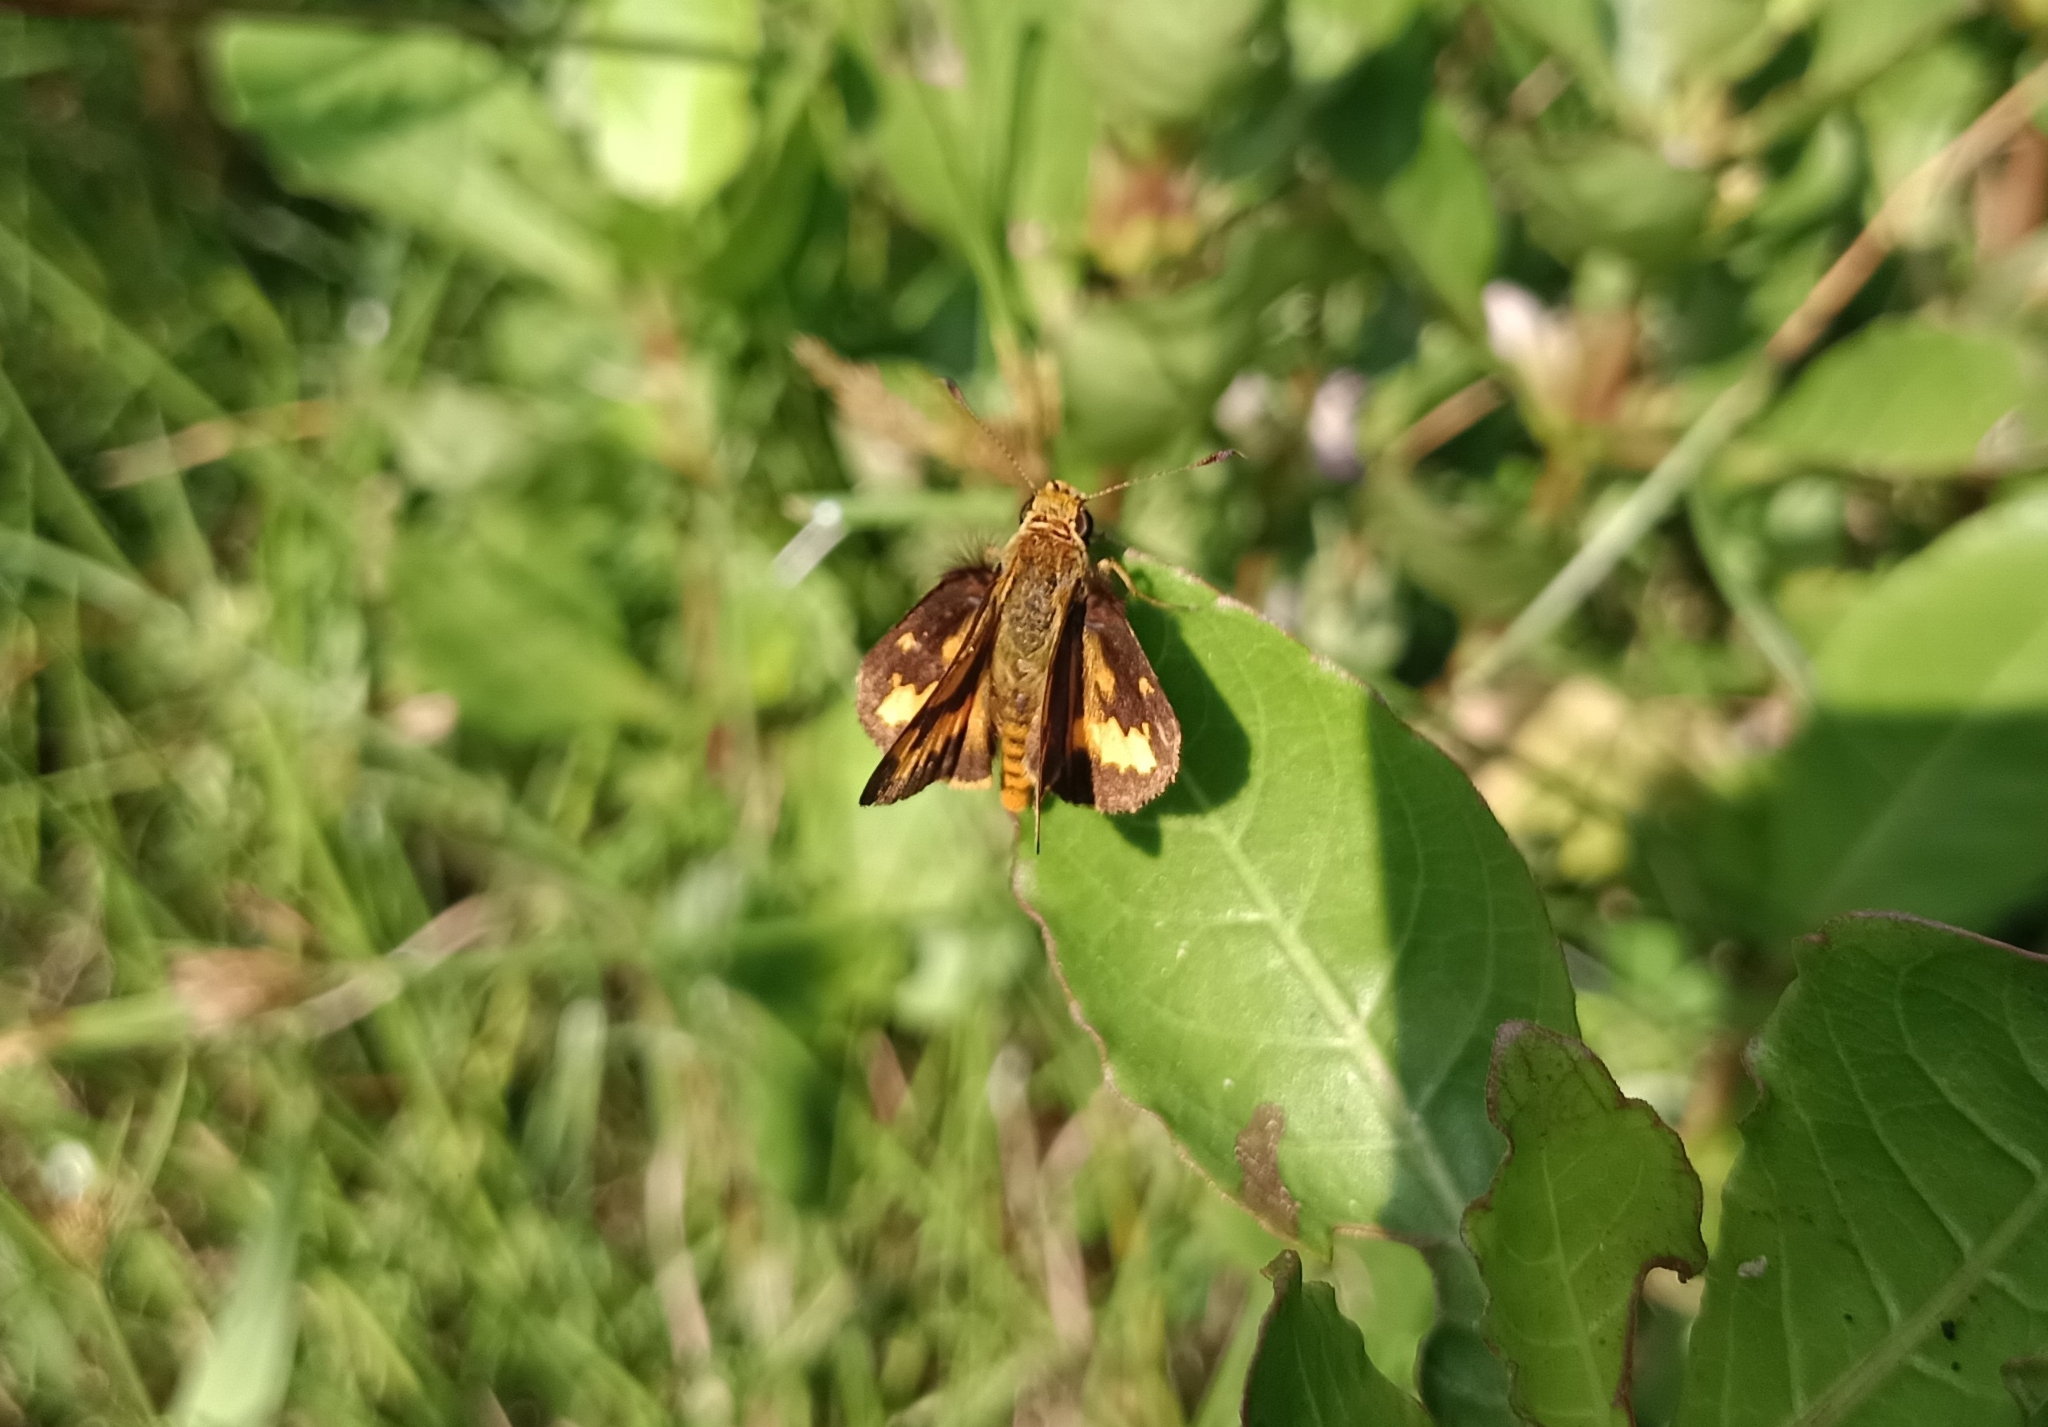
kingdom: Animalia
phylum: Arthropoda
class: Insecta
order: Lepidoptera
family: Hesperiidae
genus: Potanthus
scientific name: Potanthus confucius
